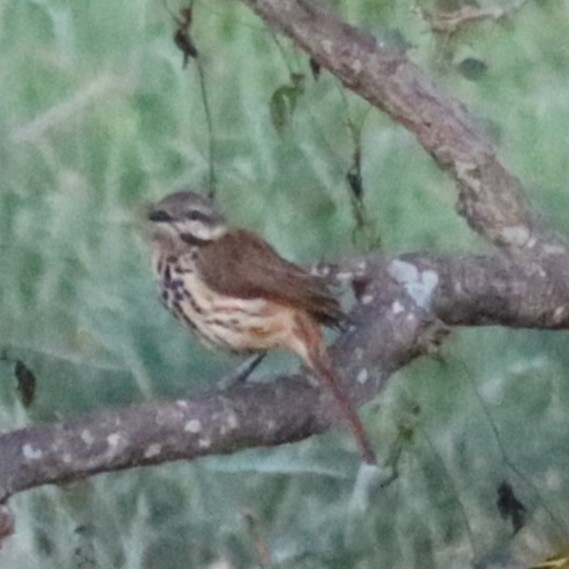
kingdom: Animalia
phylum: Chordata
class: Aves
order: Passeriformes
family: Muscicapidae
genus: Cichladusa
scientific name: Cichladusa guttata
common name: Spotted palm thrush
